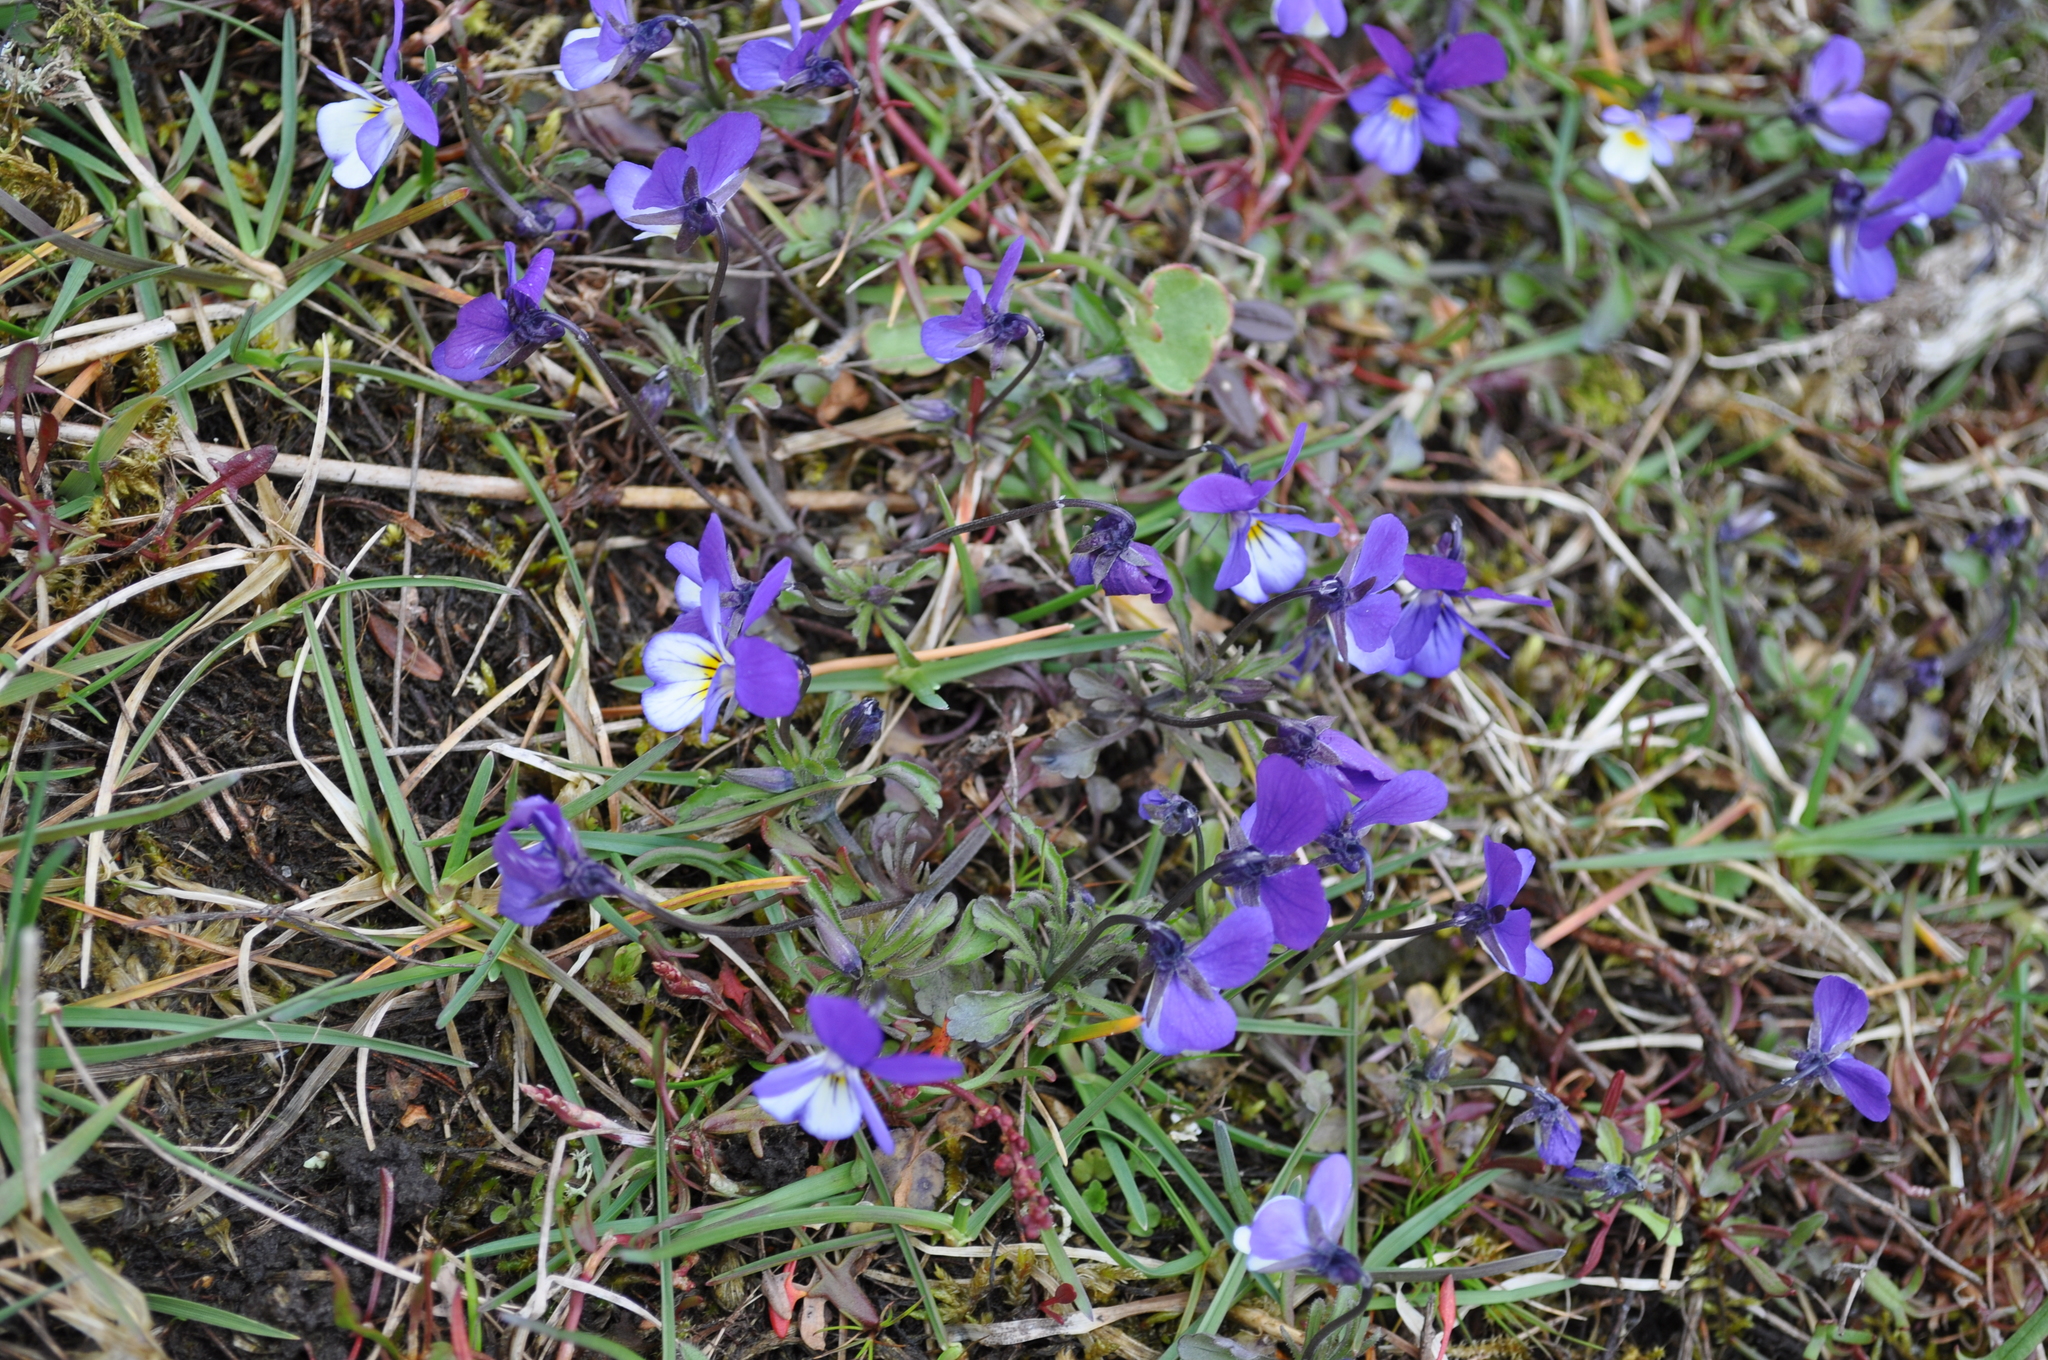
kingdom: Plantae
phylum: Tracheophyta
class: Magnoliopsida
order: Malpighiales
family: Violaceae
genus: Viola
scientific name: Viola tricolor
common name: Pansy
